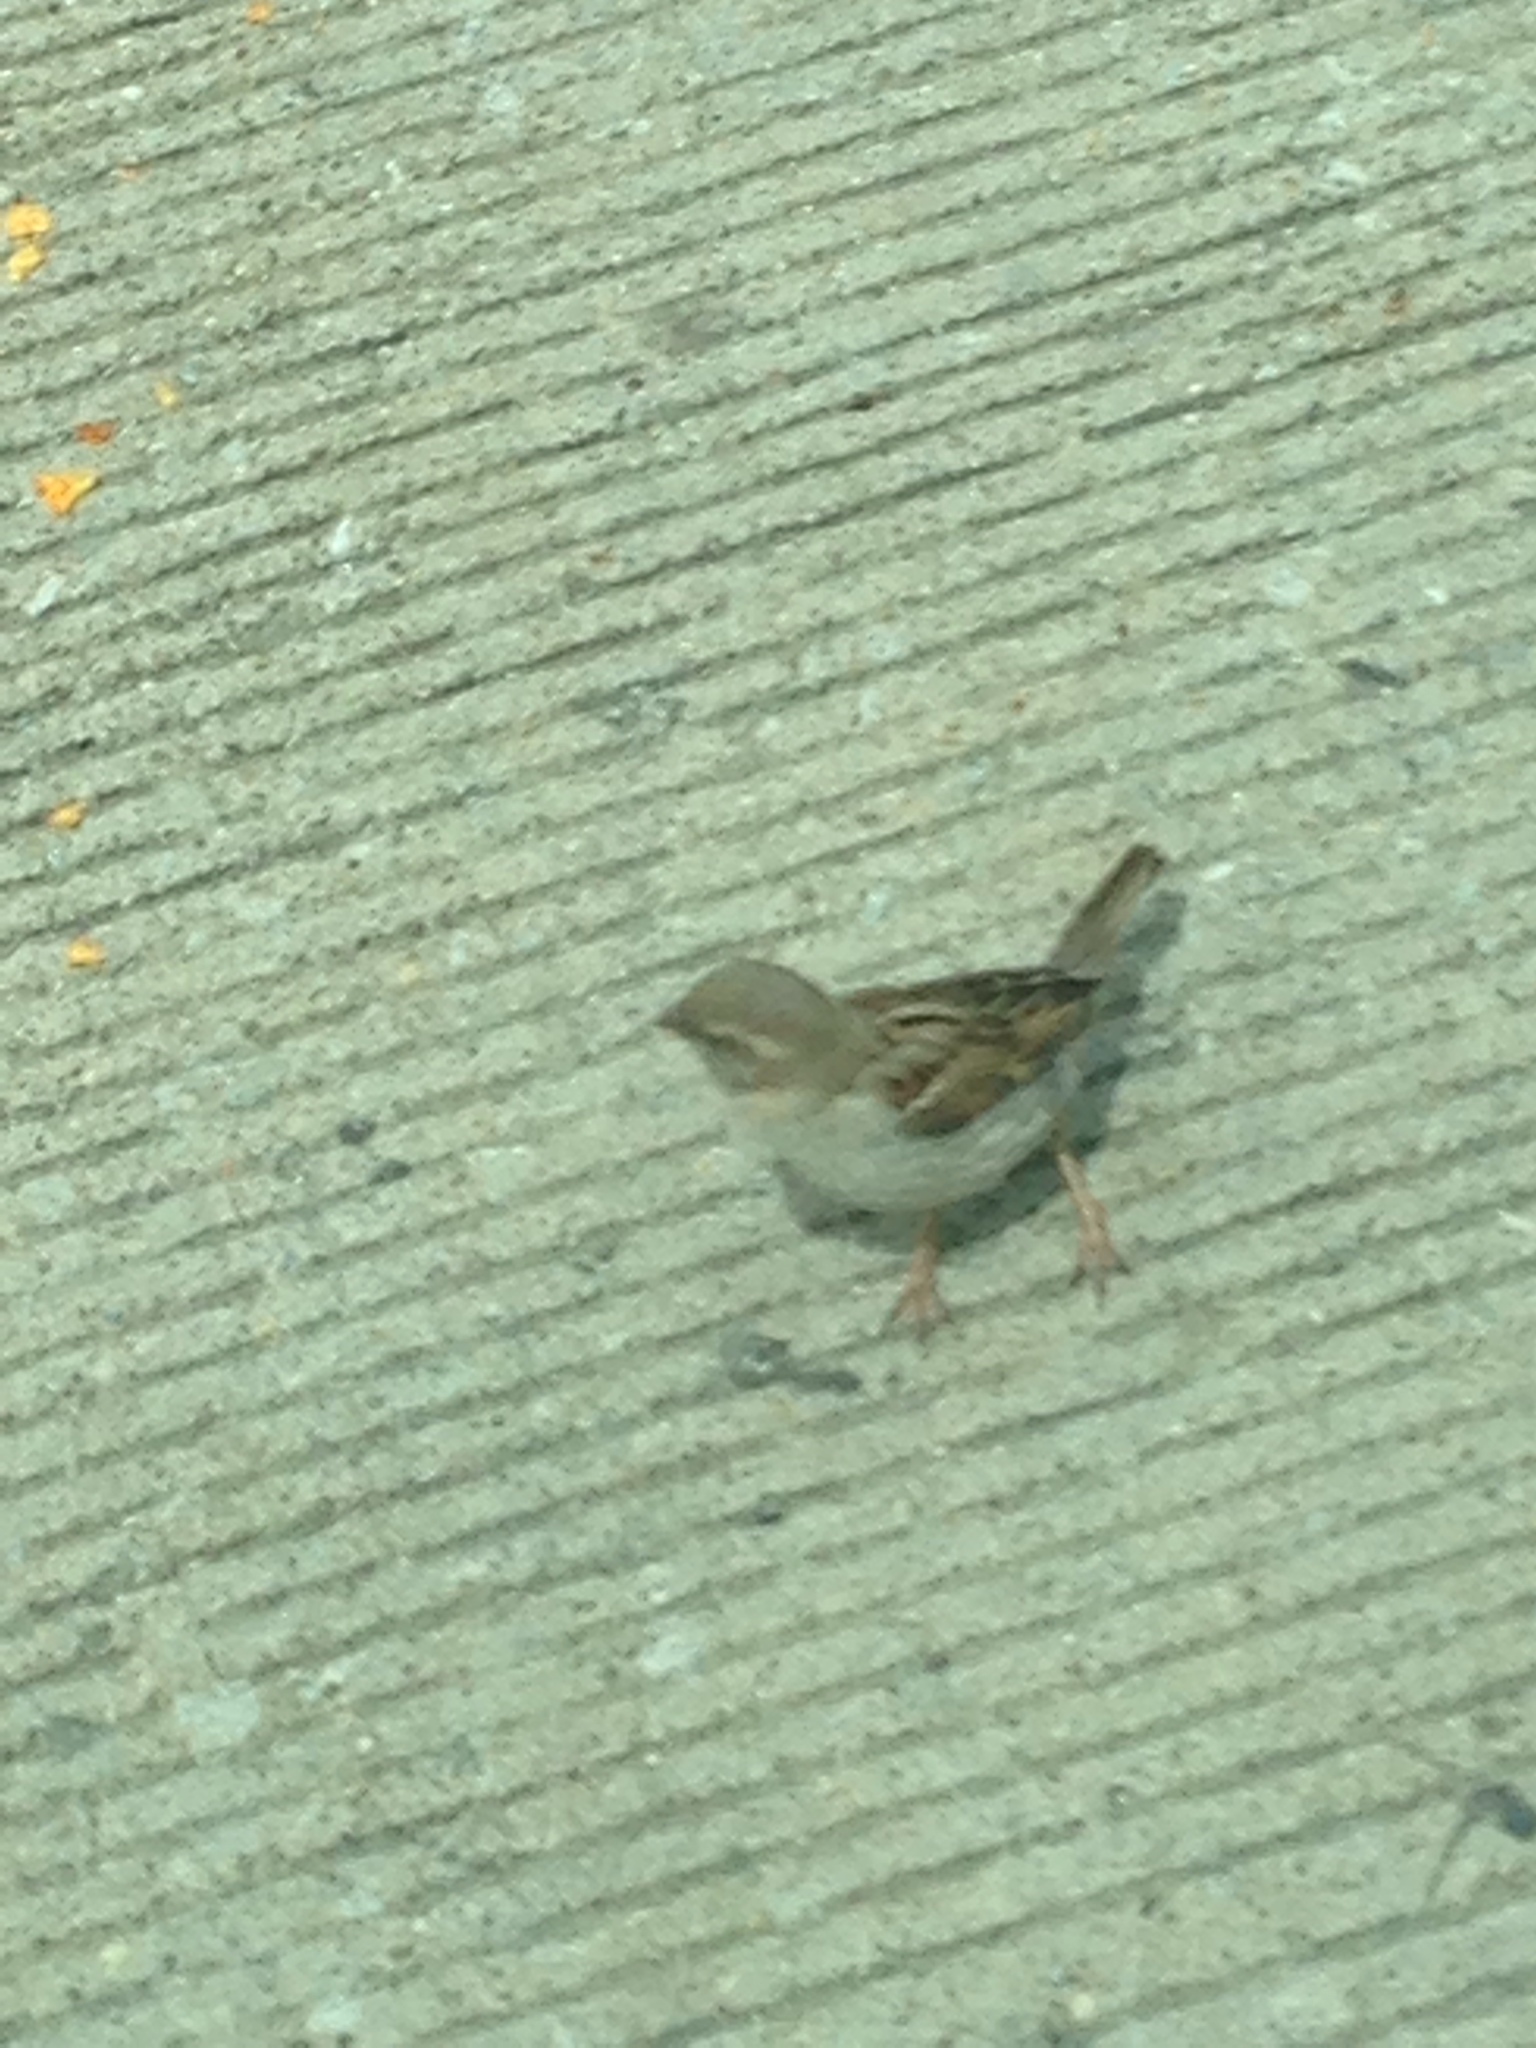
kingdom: Animalia
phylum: Chordata
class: Aves
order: Passeriformes
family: Passeridae
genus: Passer
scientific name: Passer domesticus
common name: House sparrow
